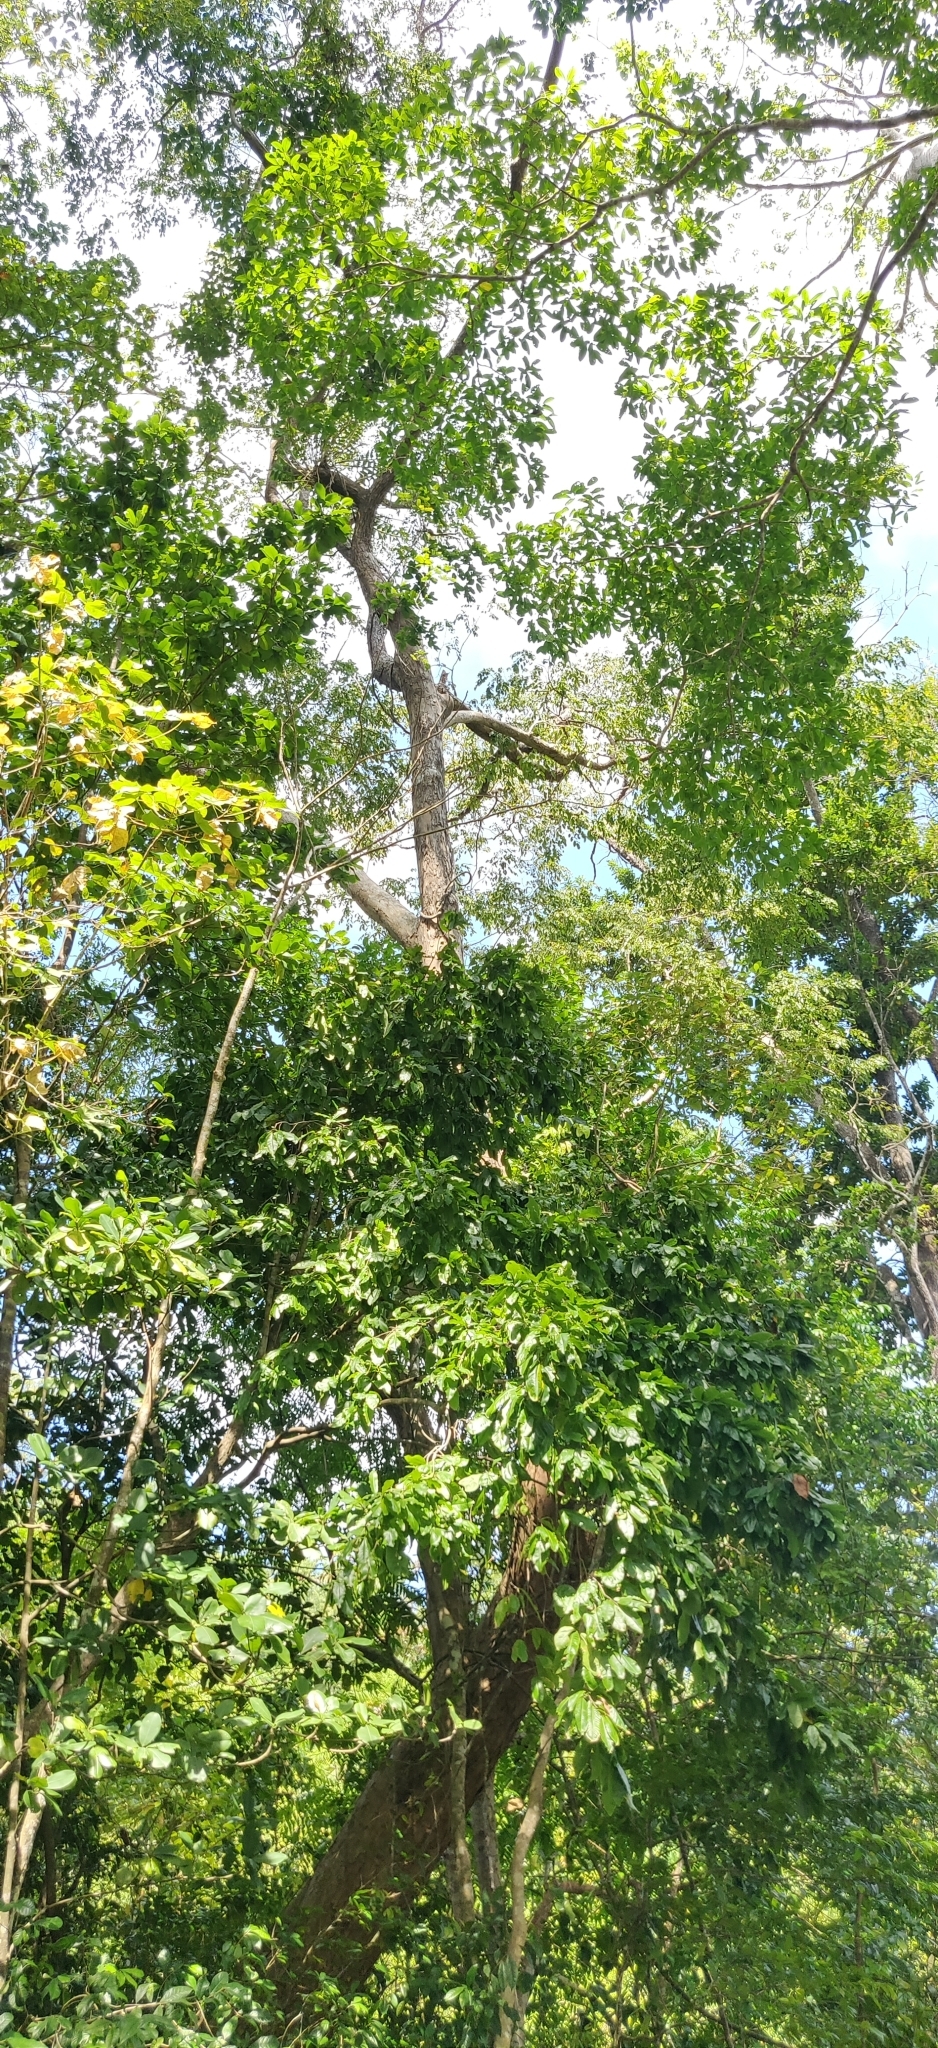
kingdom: Plantae
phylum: Tracheophyta
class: Magnoliopsida
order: Fabales
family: Fabaceae
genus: Pterocarpus
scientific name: Pterocarpus dalbergioides
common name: Andaman redwood
